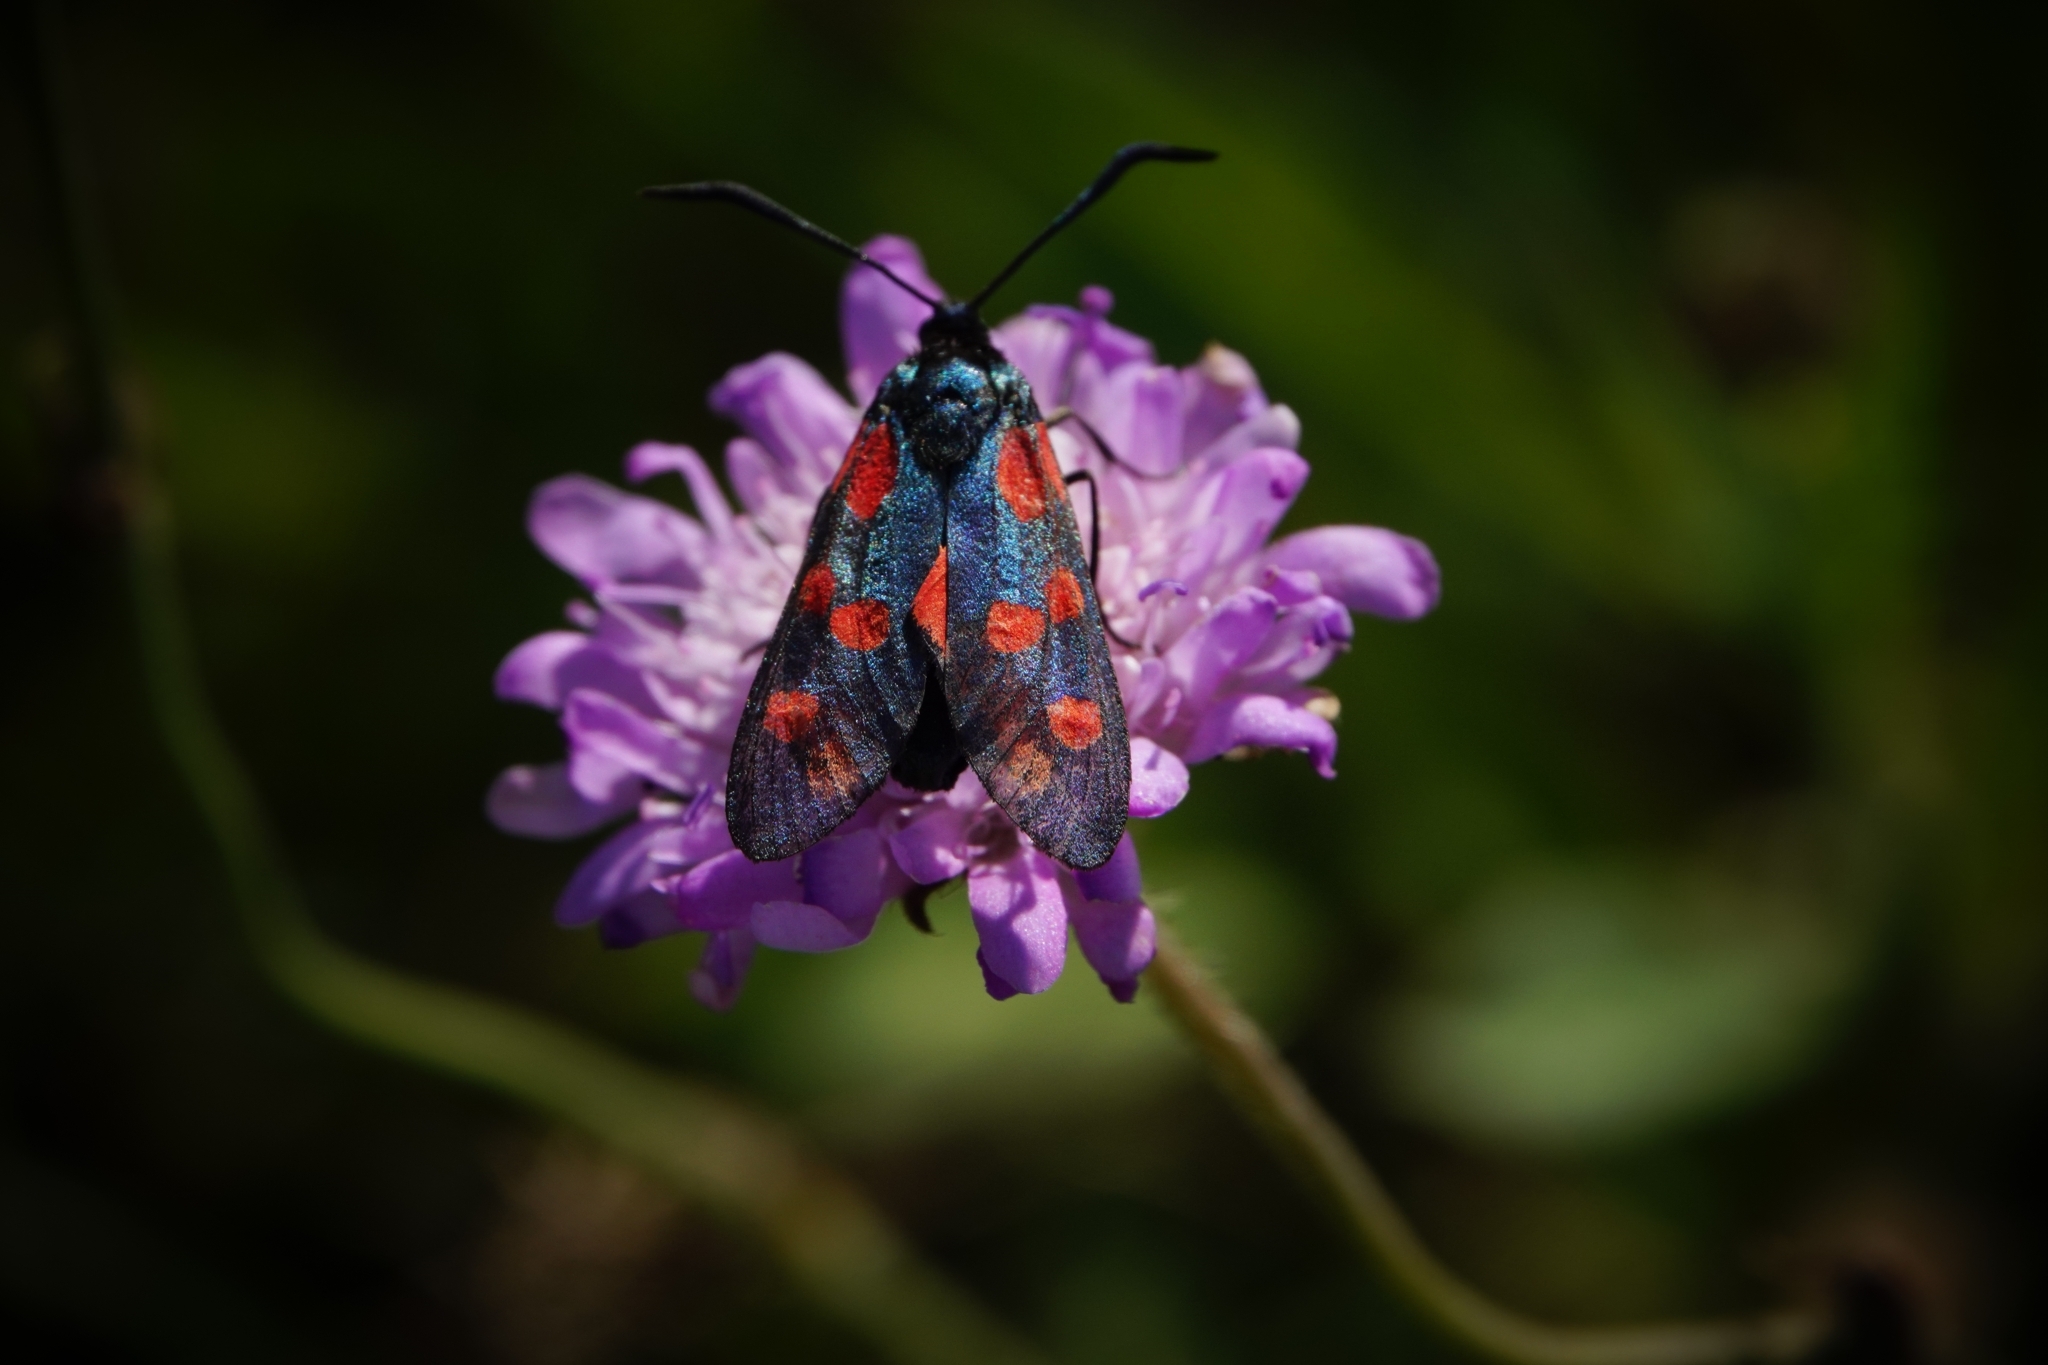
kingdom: Animalia
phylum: Arthropoda
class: Insecta
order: Lepidoptera
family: Zygaenidae
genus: Zygaena
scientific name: Zygaena filipendulae
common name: Six-spot burnet
